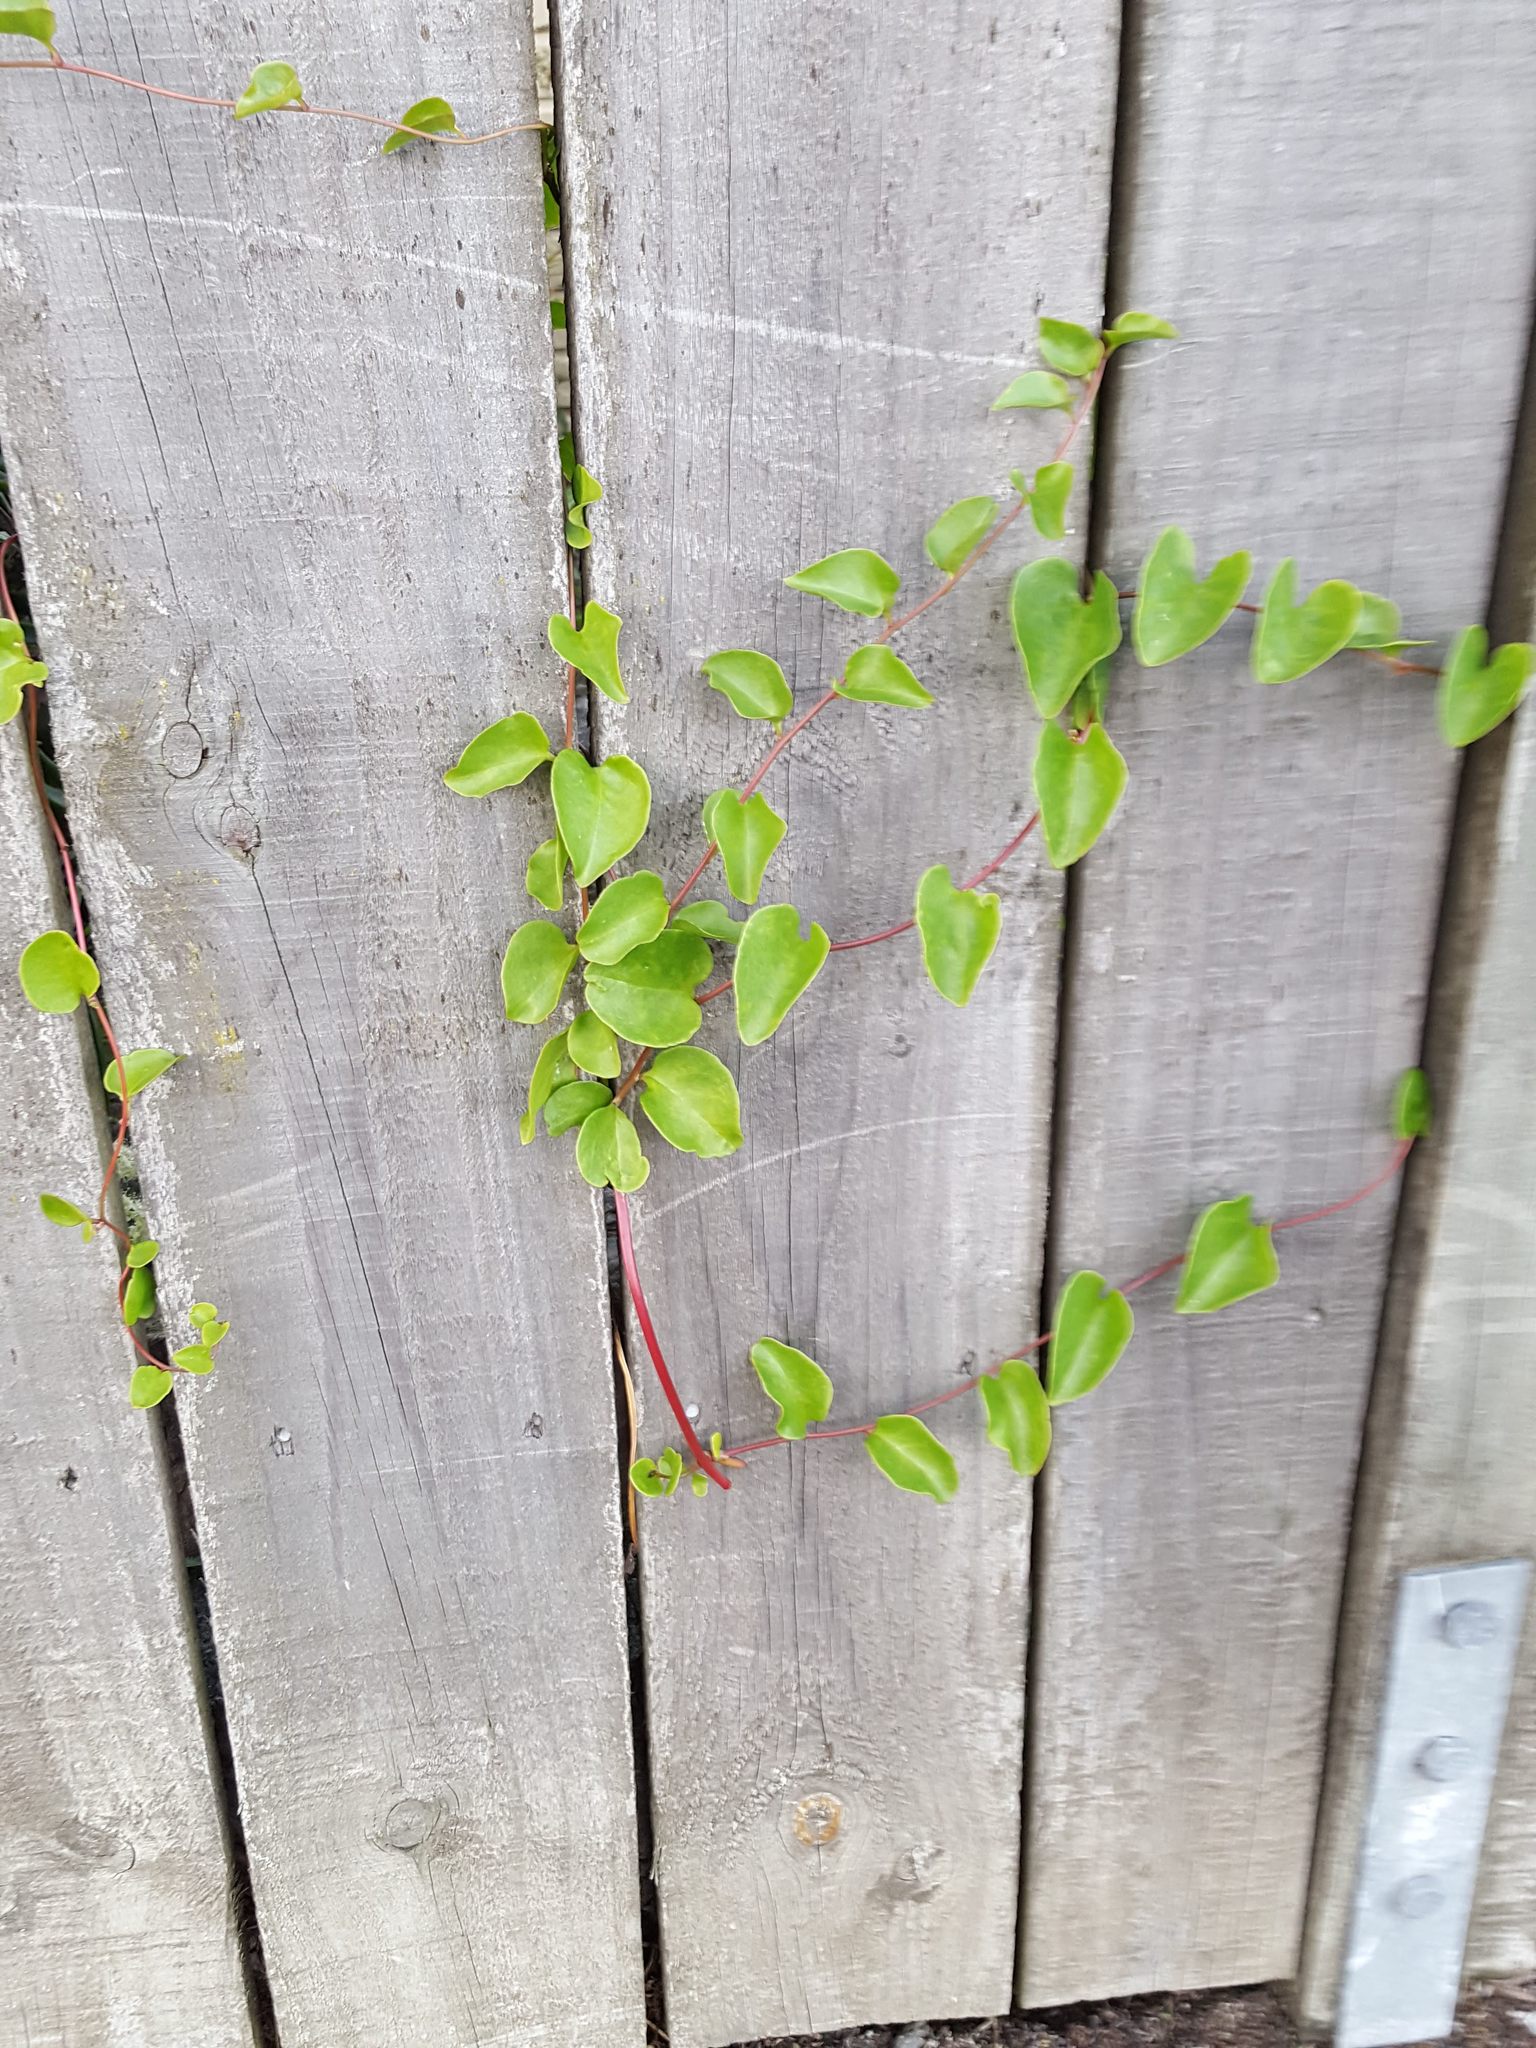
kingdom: Plantae
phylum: Tracheophyta
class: Magnoliopsida
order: Caryophyllales
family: Basellaceae
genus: Anredera
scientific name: Anredera cordifolia
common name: Heartleaf madeiravine
